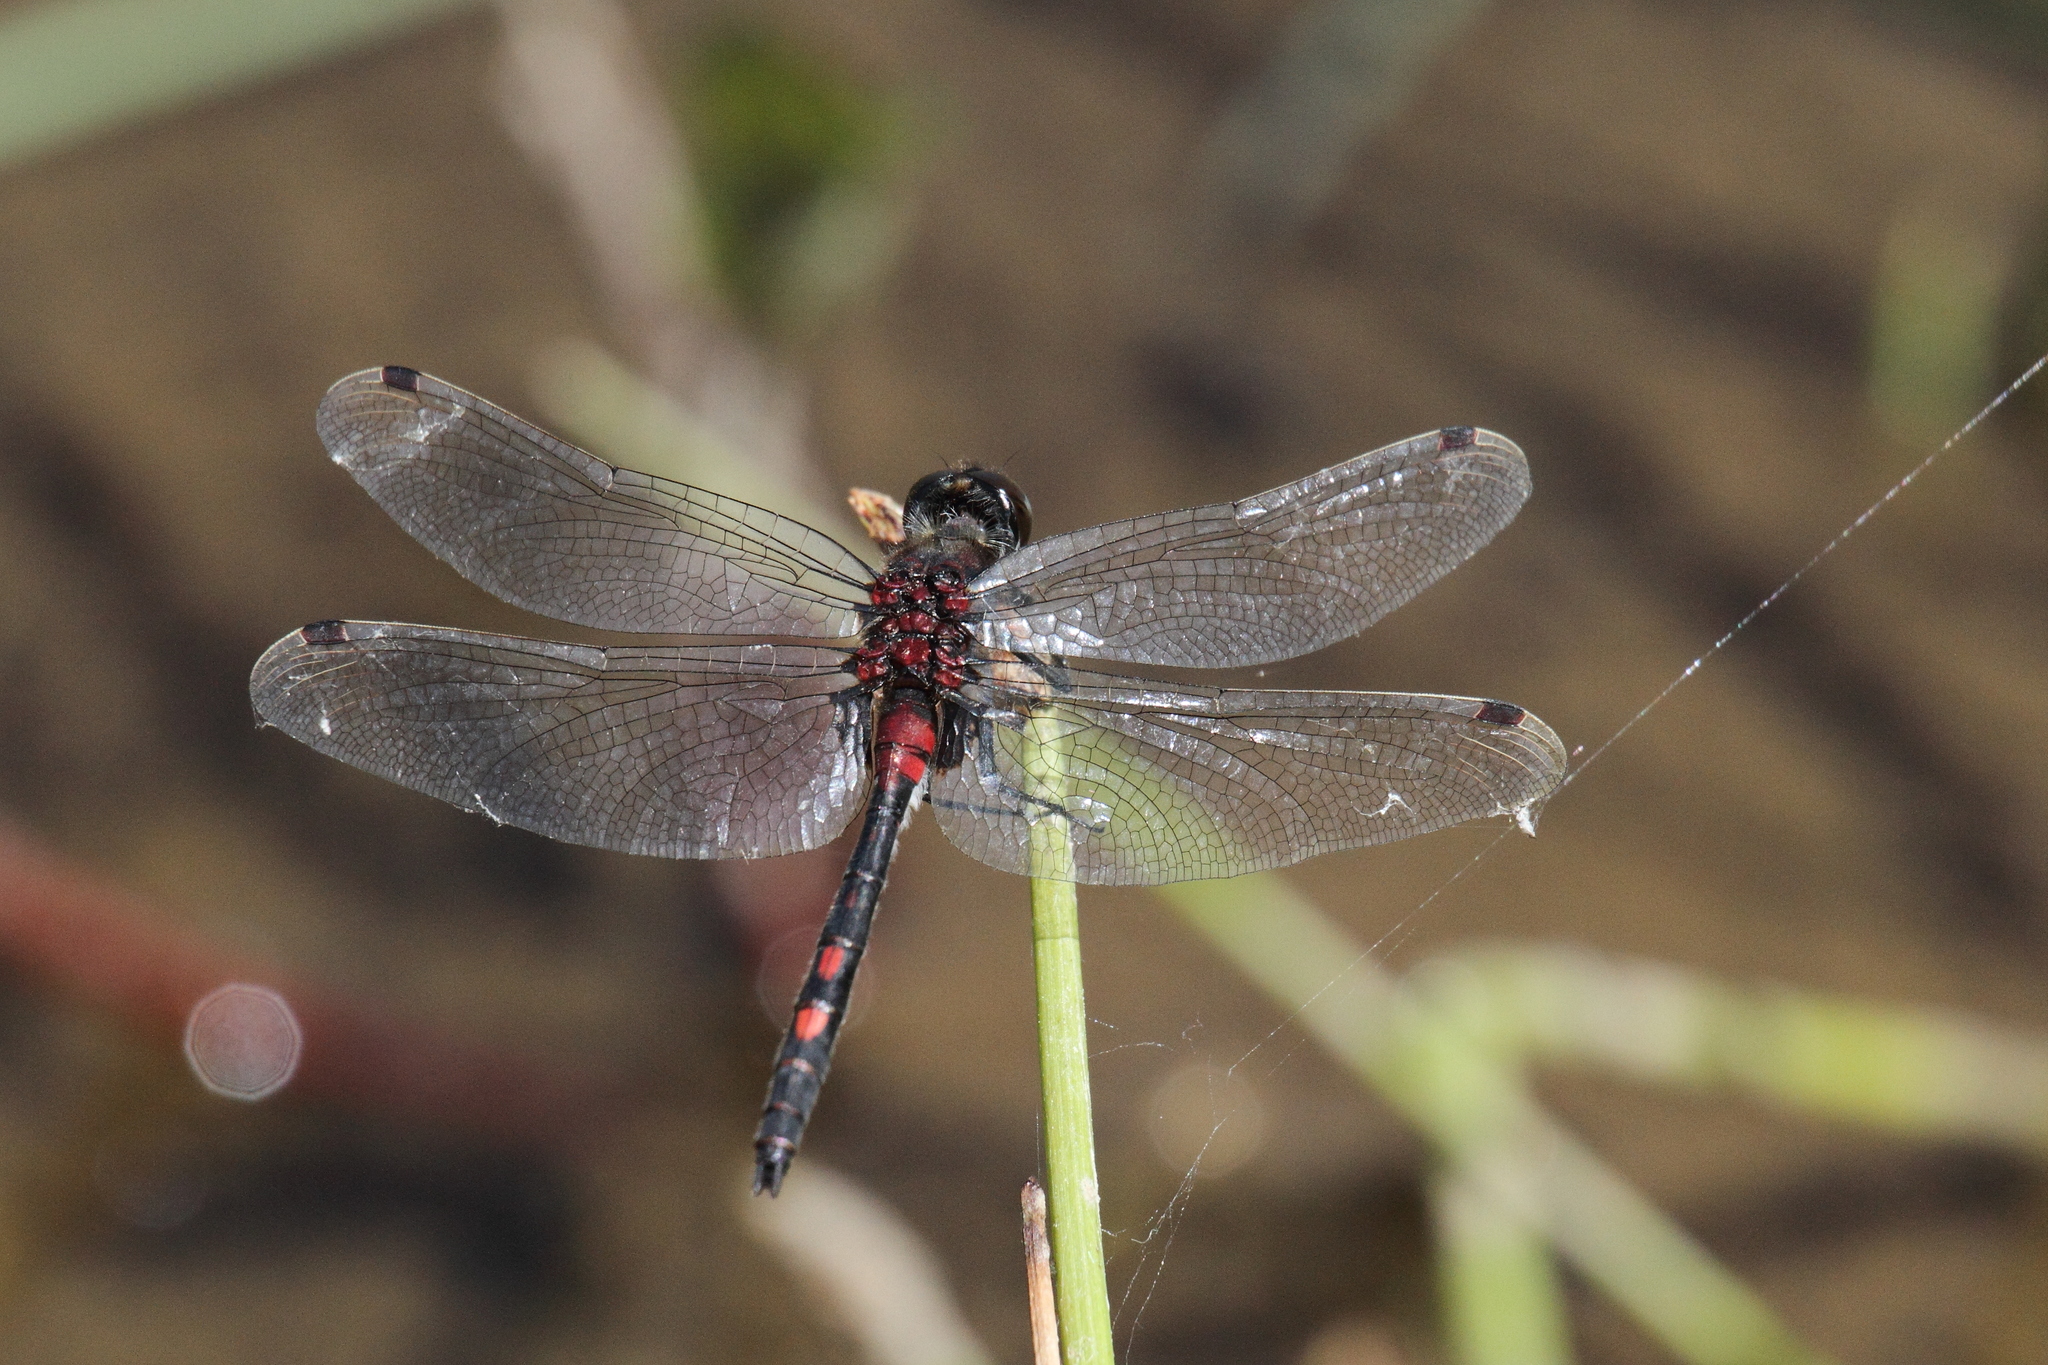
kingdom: Animalia
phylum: Arthropoda
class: Insecta
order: Odonata
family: Libellulidae
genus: Leucorrhinia
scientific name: Leucorrhinia dubia
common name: White-faced darter
